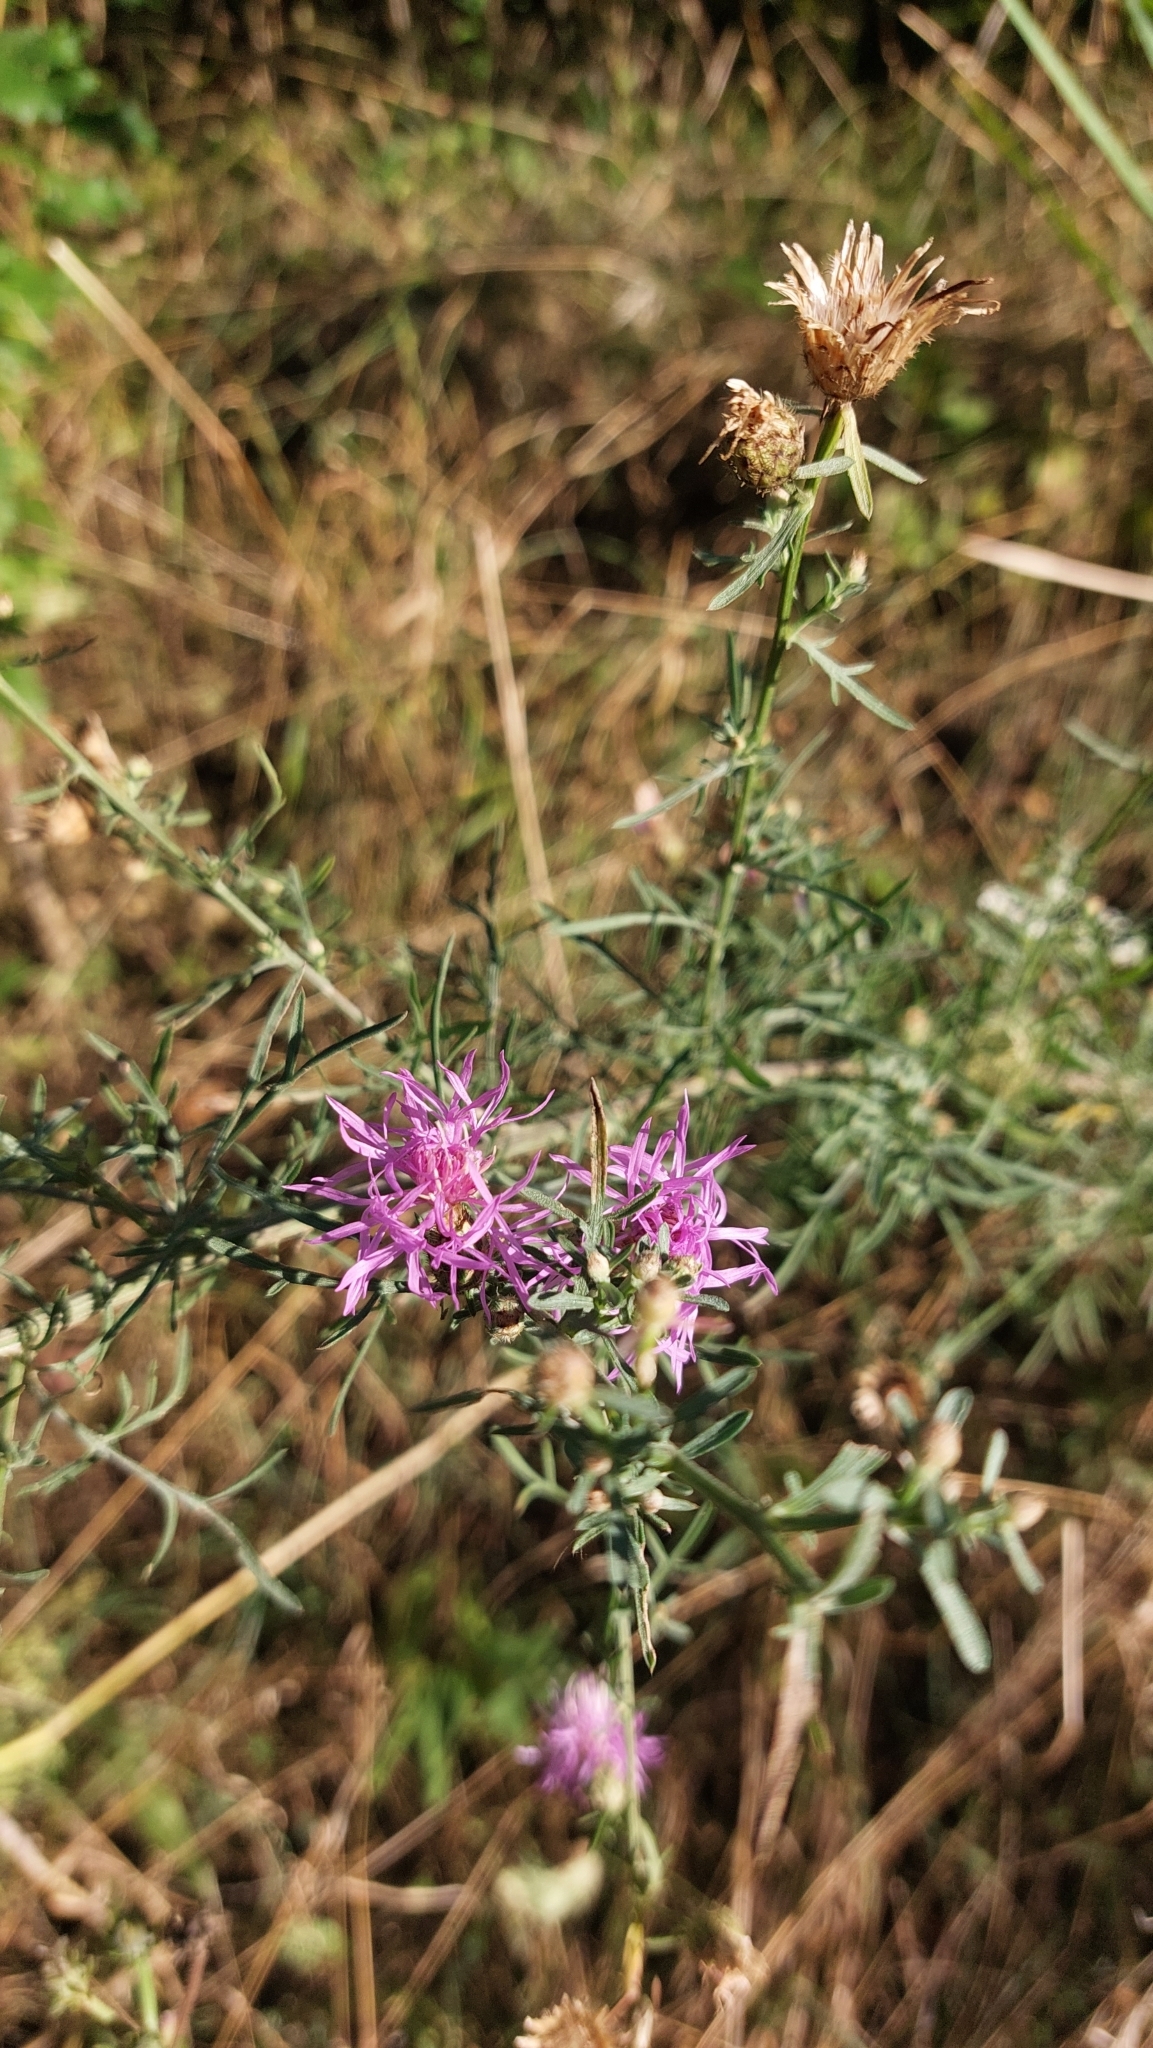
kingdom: Plantae
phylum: Tracheophyta
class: Magnoliopsida
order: Asterales
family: Asteraceae
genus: Centaurea
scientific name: Centaurea stoebe
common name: Spotted knapweed
